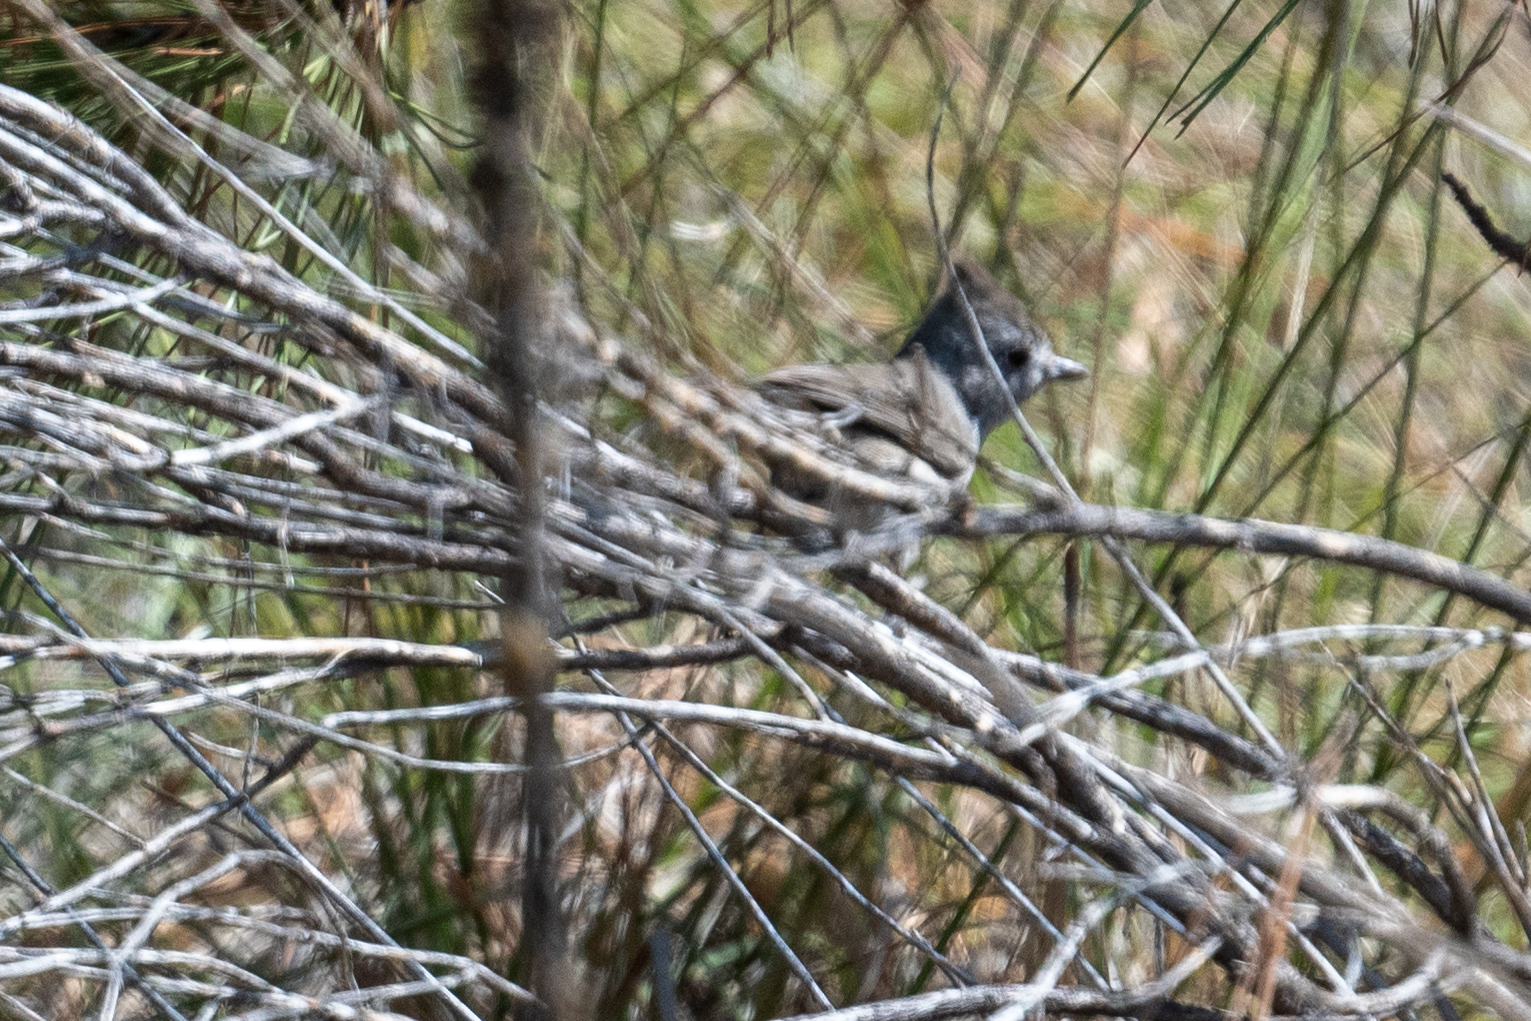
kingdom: Animalia
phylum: Chordata
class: Aves
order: Passeriformes
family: Paridae
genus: Baeolophus
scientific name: Baeolophus inornatus
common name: Oak titmouse
